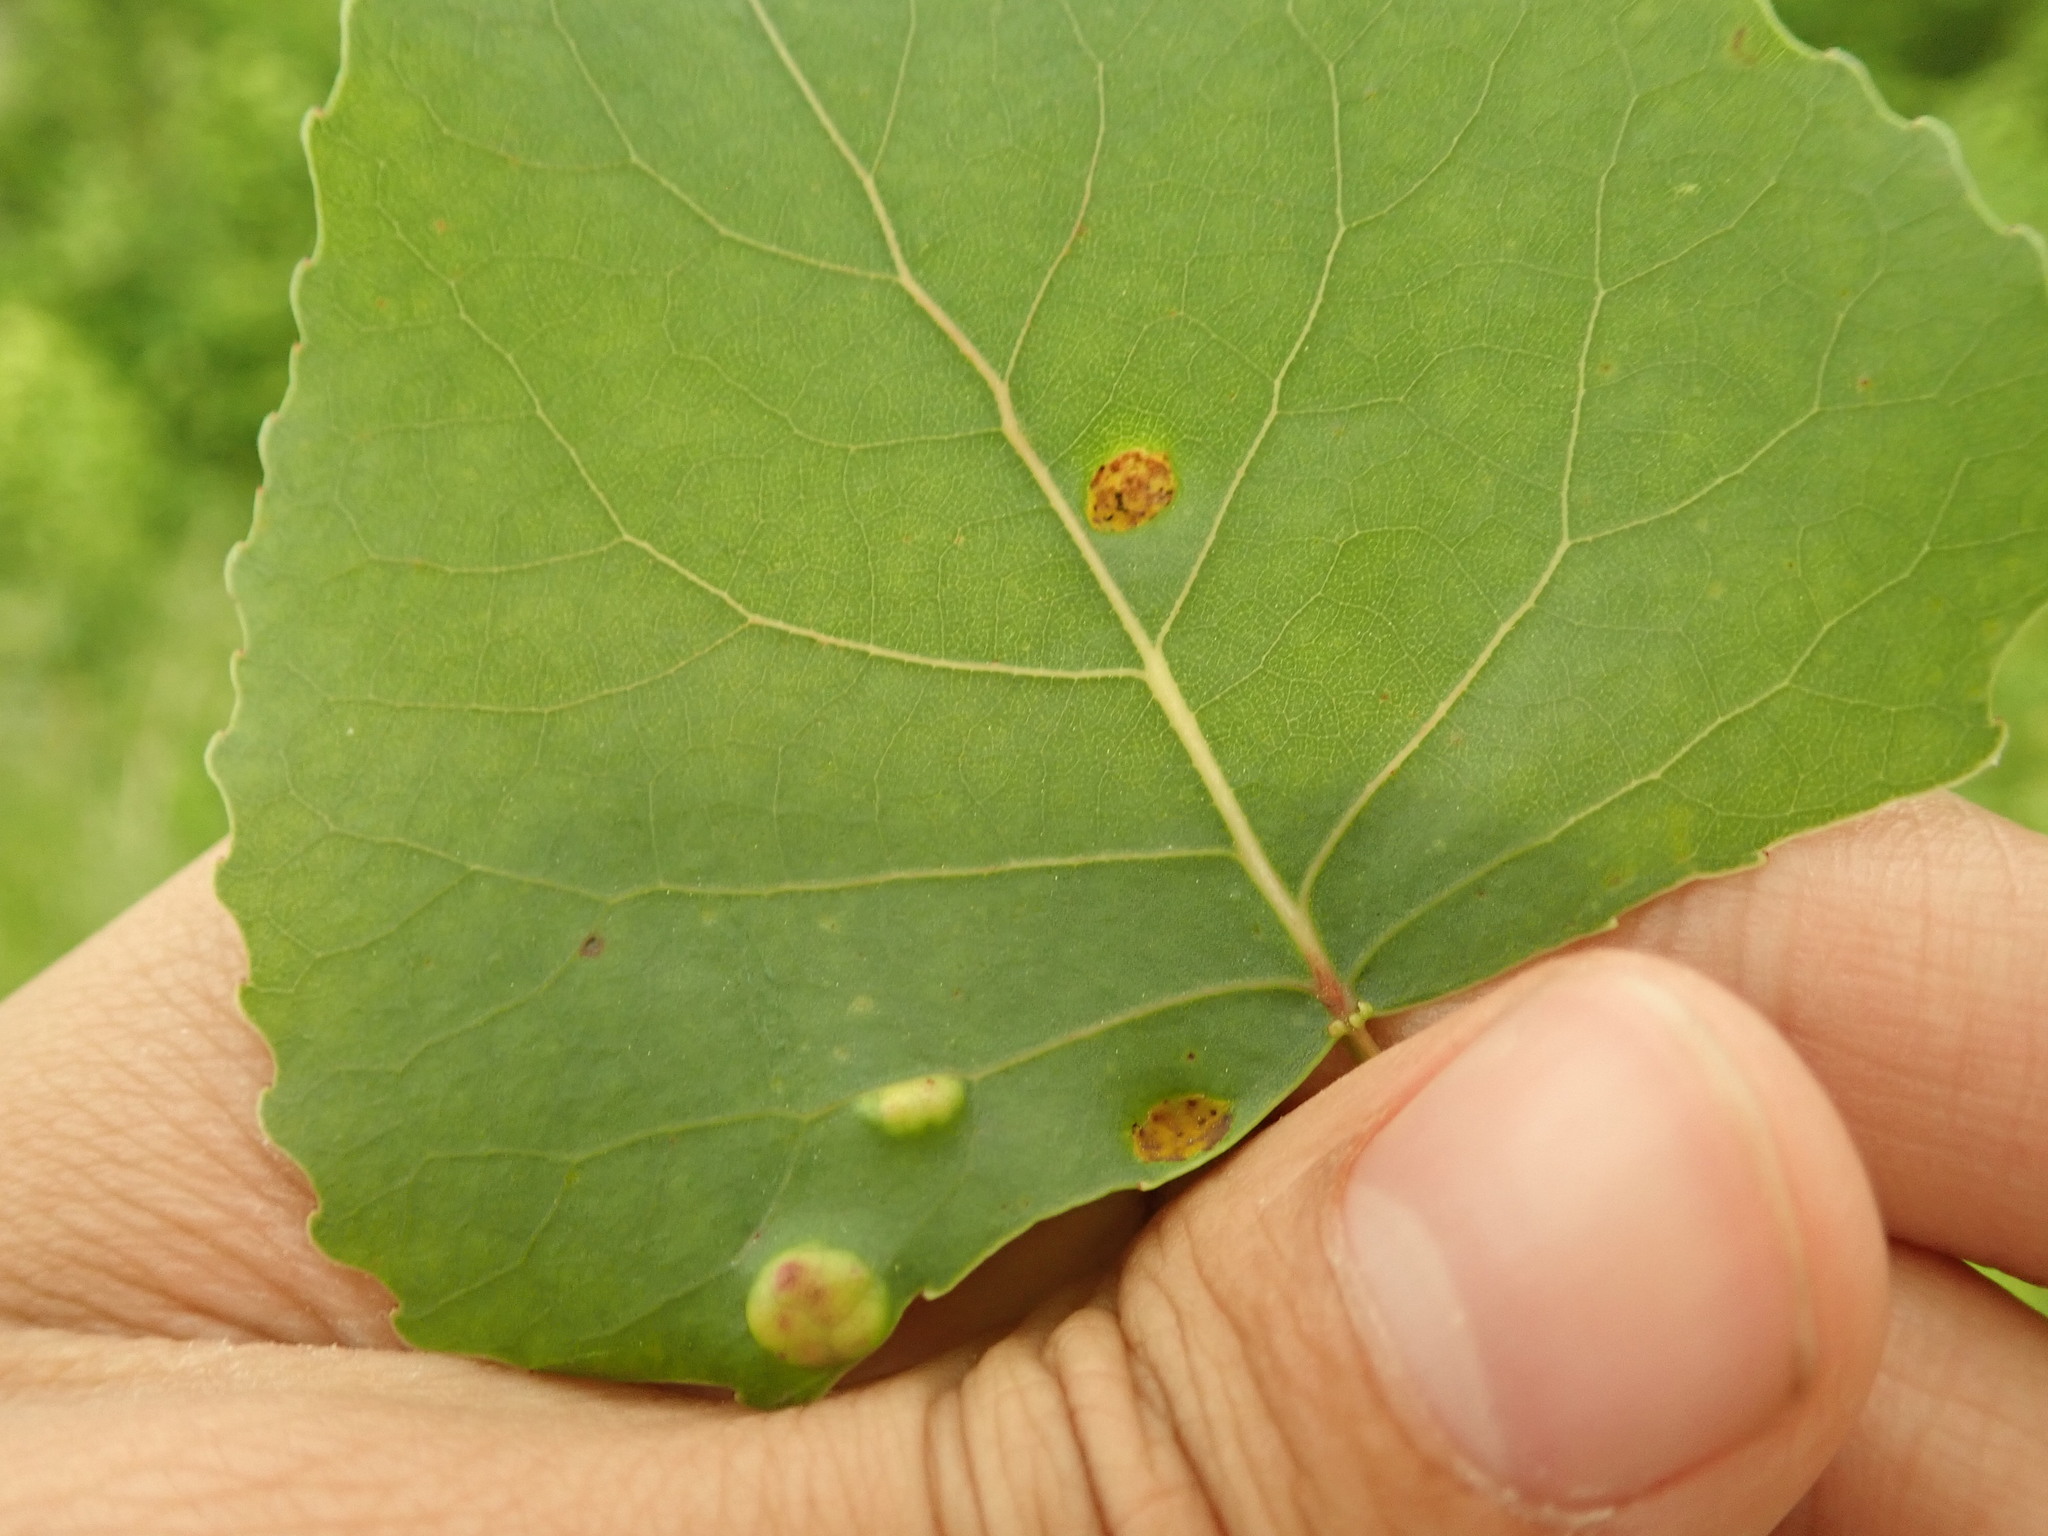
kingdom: Fungi
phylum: Ascomycota
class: Taphrinomycetes
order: Taphrinales
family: Taphrinaceae
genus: Taphrina
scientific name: Taphrina populina
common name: Poplar leaf curl
